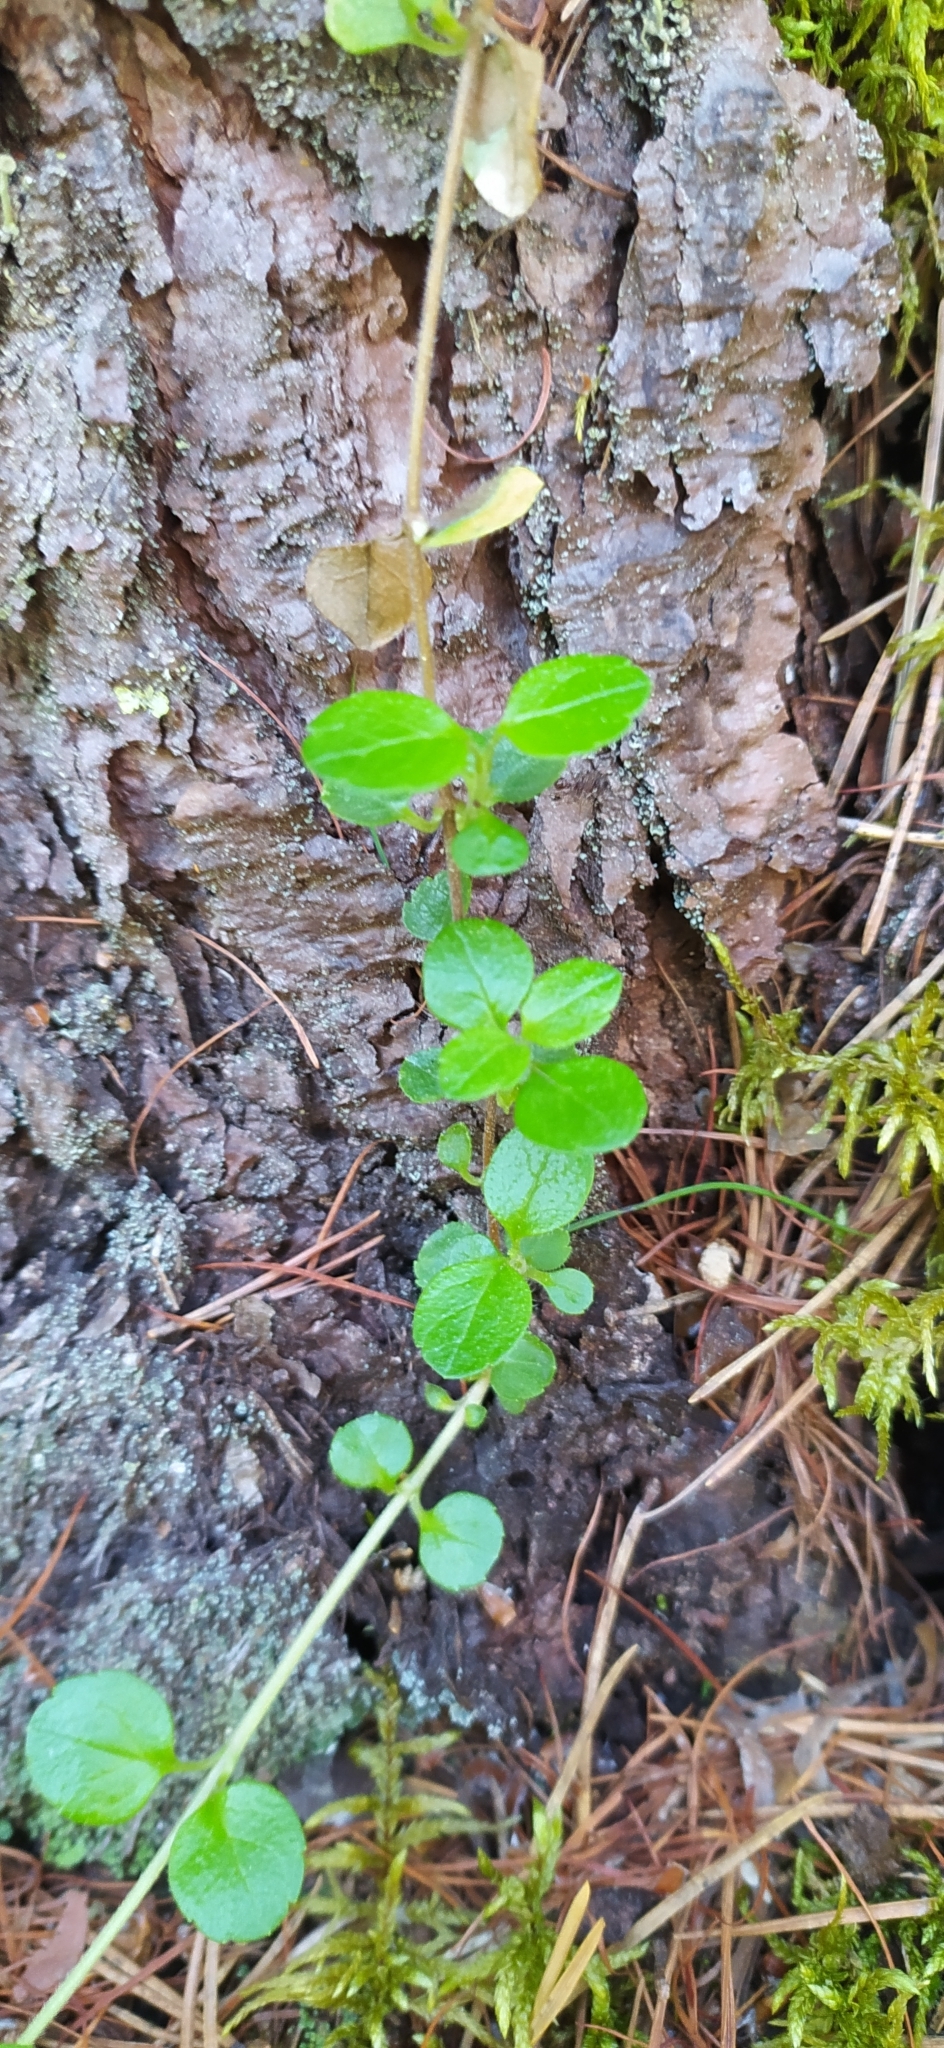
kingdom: Plantae
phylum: Tracheophyta
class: Magnoliopsida
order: Dipsacales
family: Caprifoliaceae
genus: Linnaea
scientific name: Linnaea borealis
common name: Twinflower
